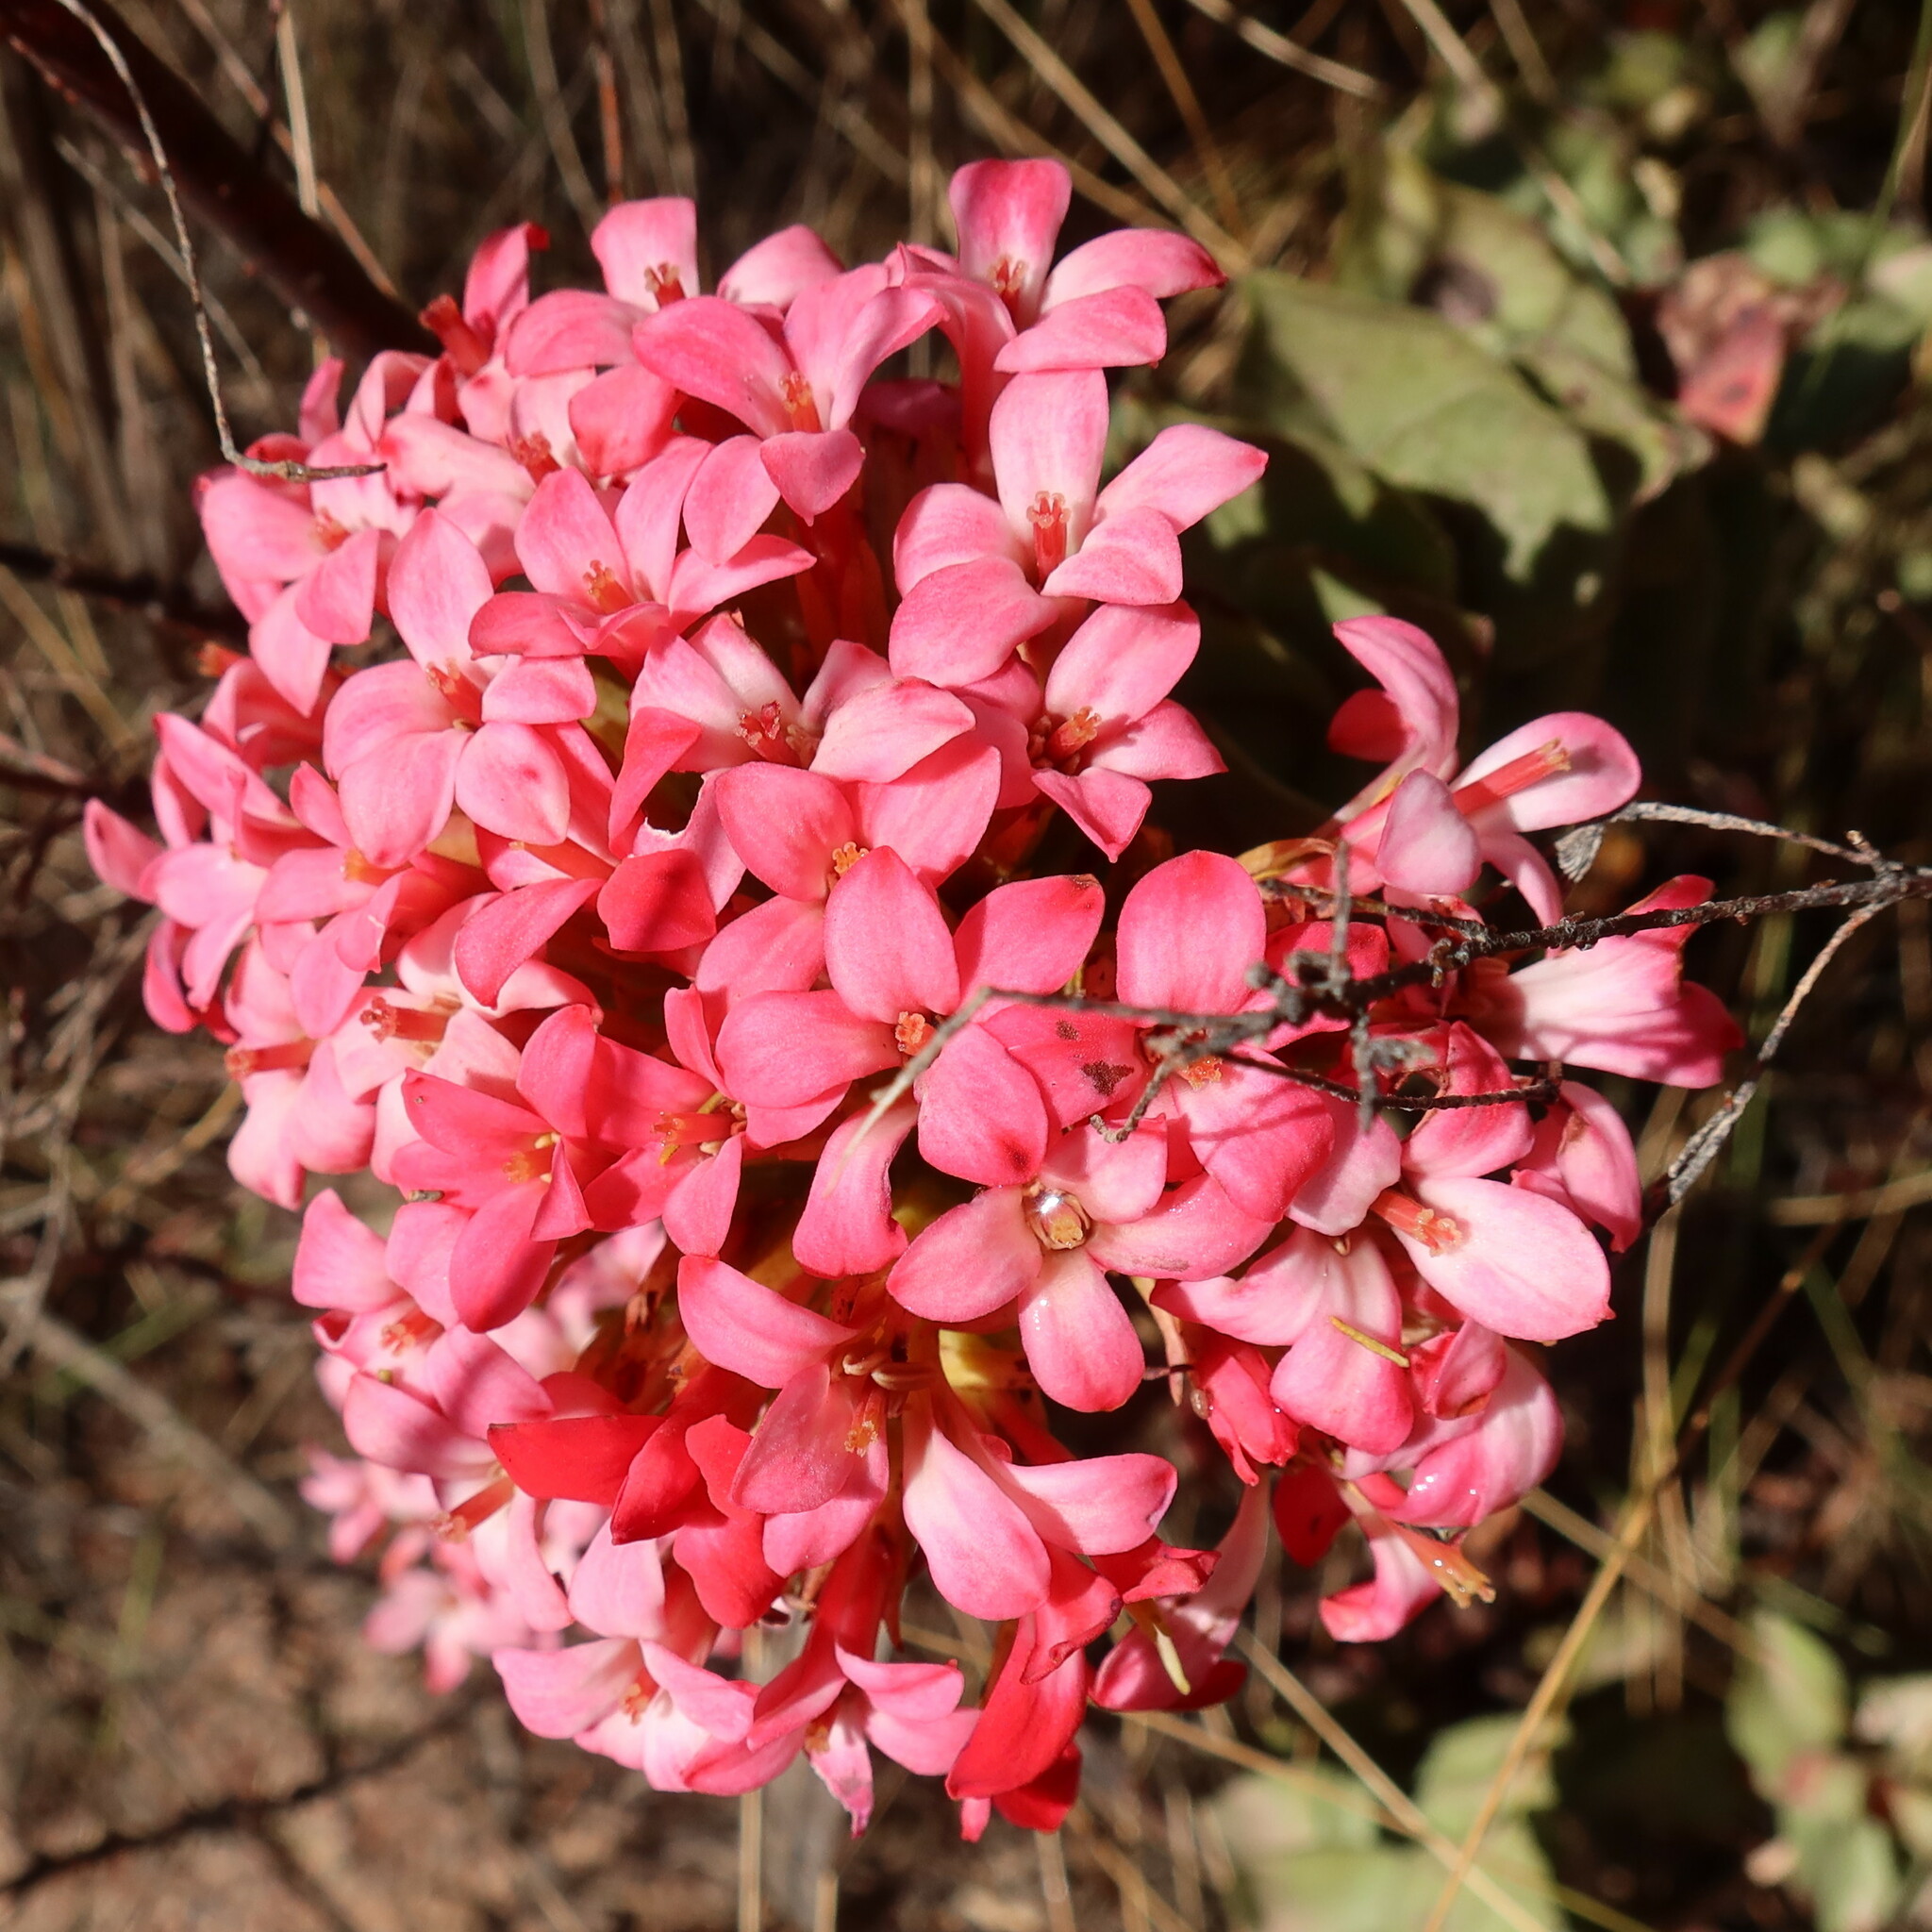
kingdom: Plantae
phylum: Tracheophyta
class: Magnoliopsida
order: Saxifragales
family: Crassulaceae
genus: Crassula
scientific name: Crassula coccinea
